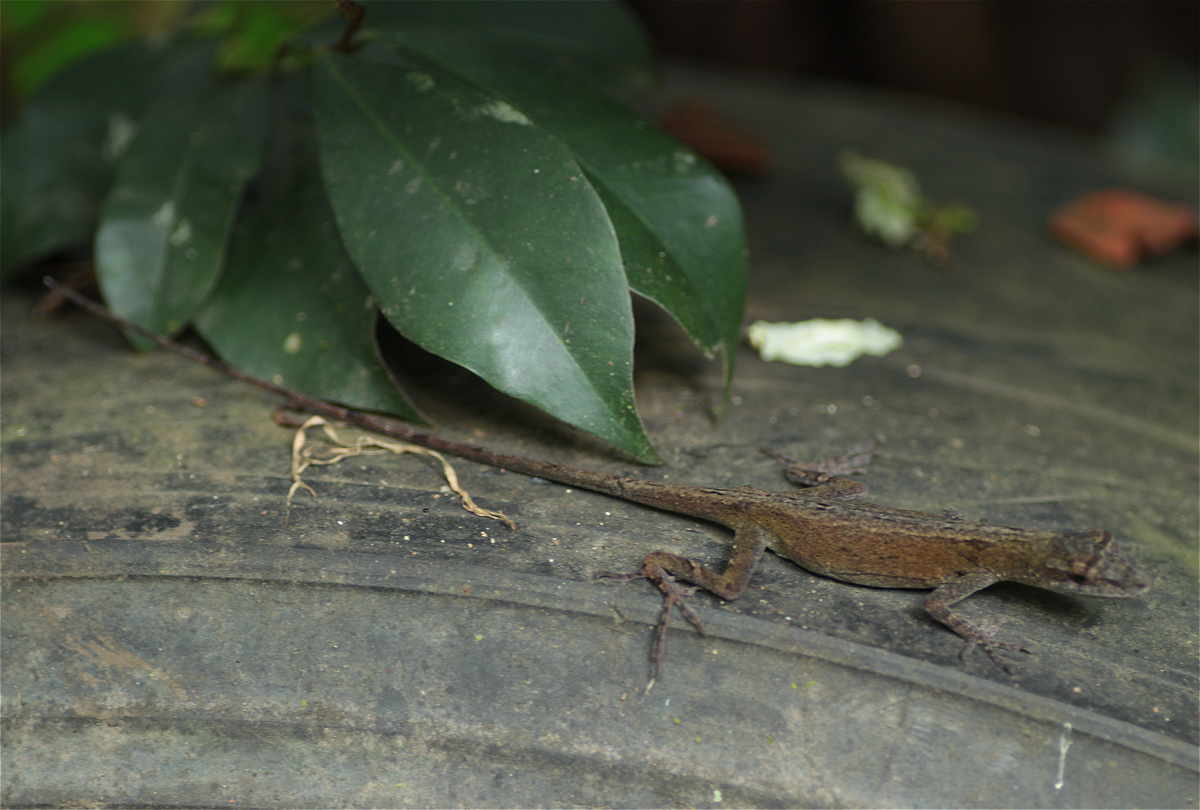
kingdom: Animalia
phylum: Chordata
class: Squamata
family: Dactyloidae
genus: Anolis
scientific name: Anolis tolimensis
